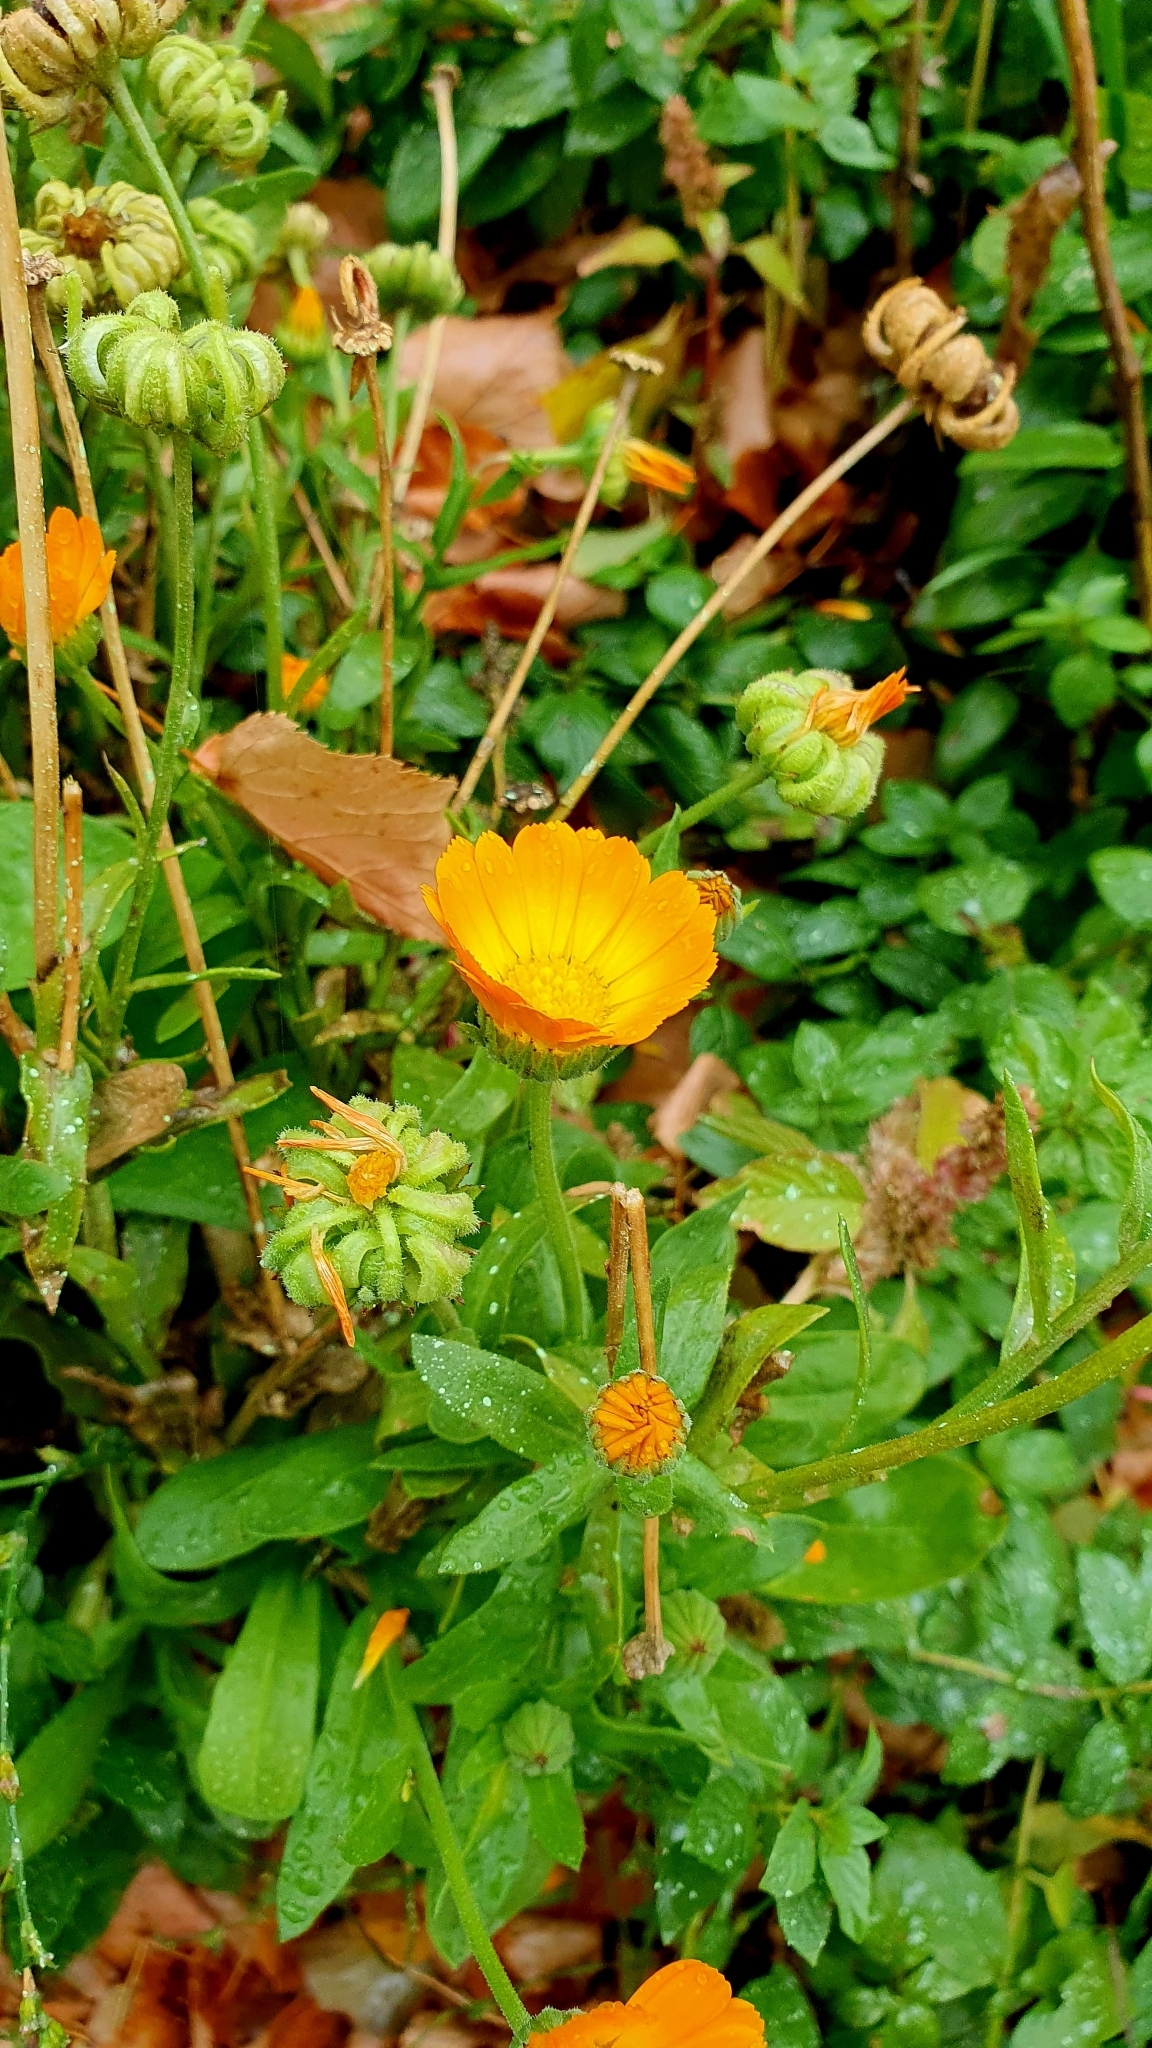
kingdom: Plantae
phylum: Tracheophyta
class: Magnoliopsida
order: Asterales
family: Asteraceae
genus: Calendula
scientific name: Calendula officinalis
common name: Pot marigold
